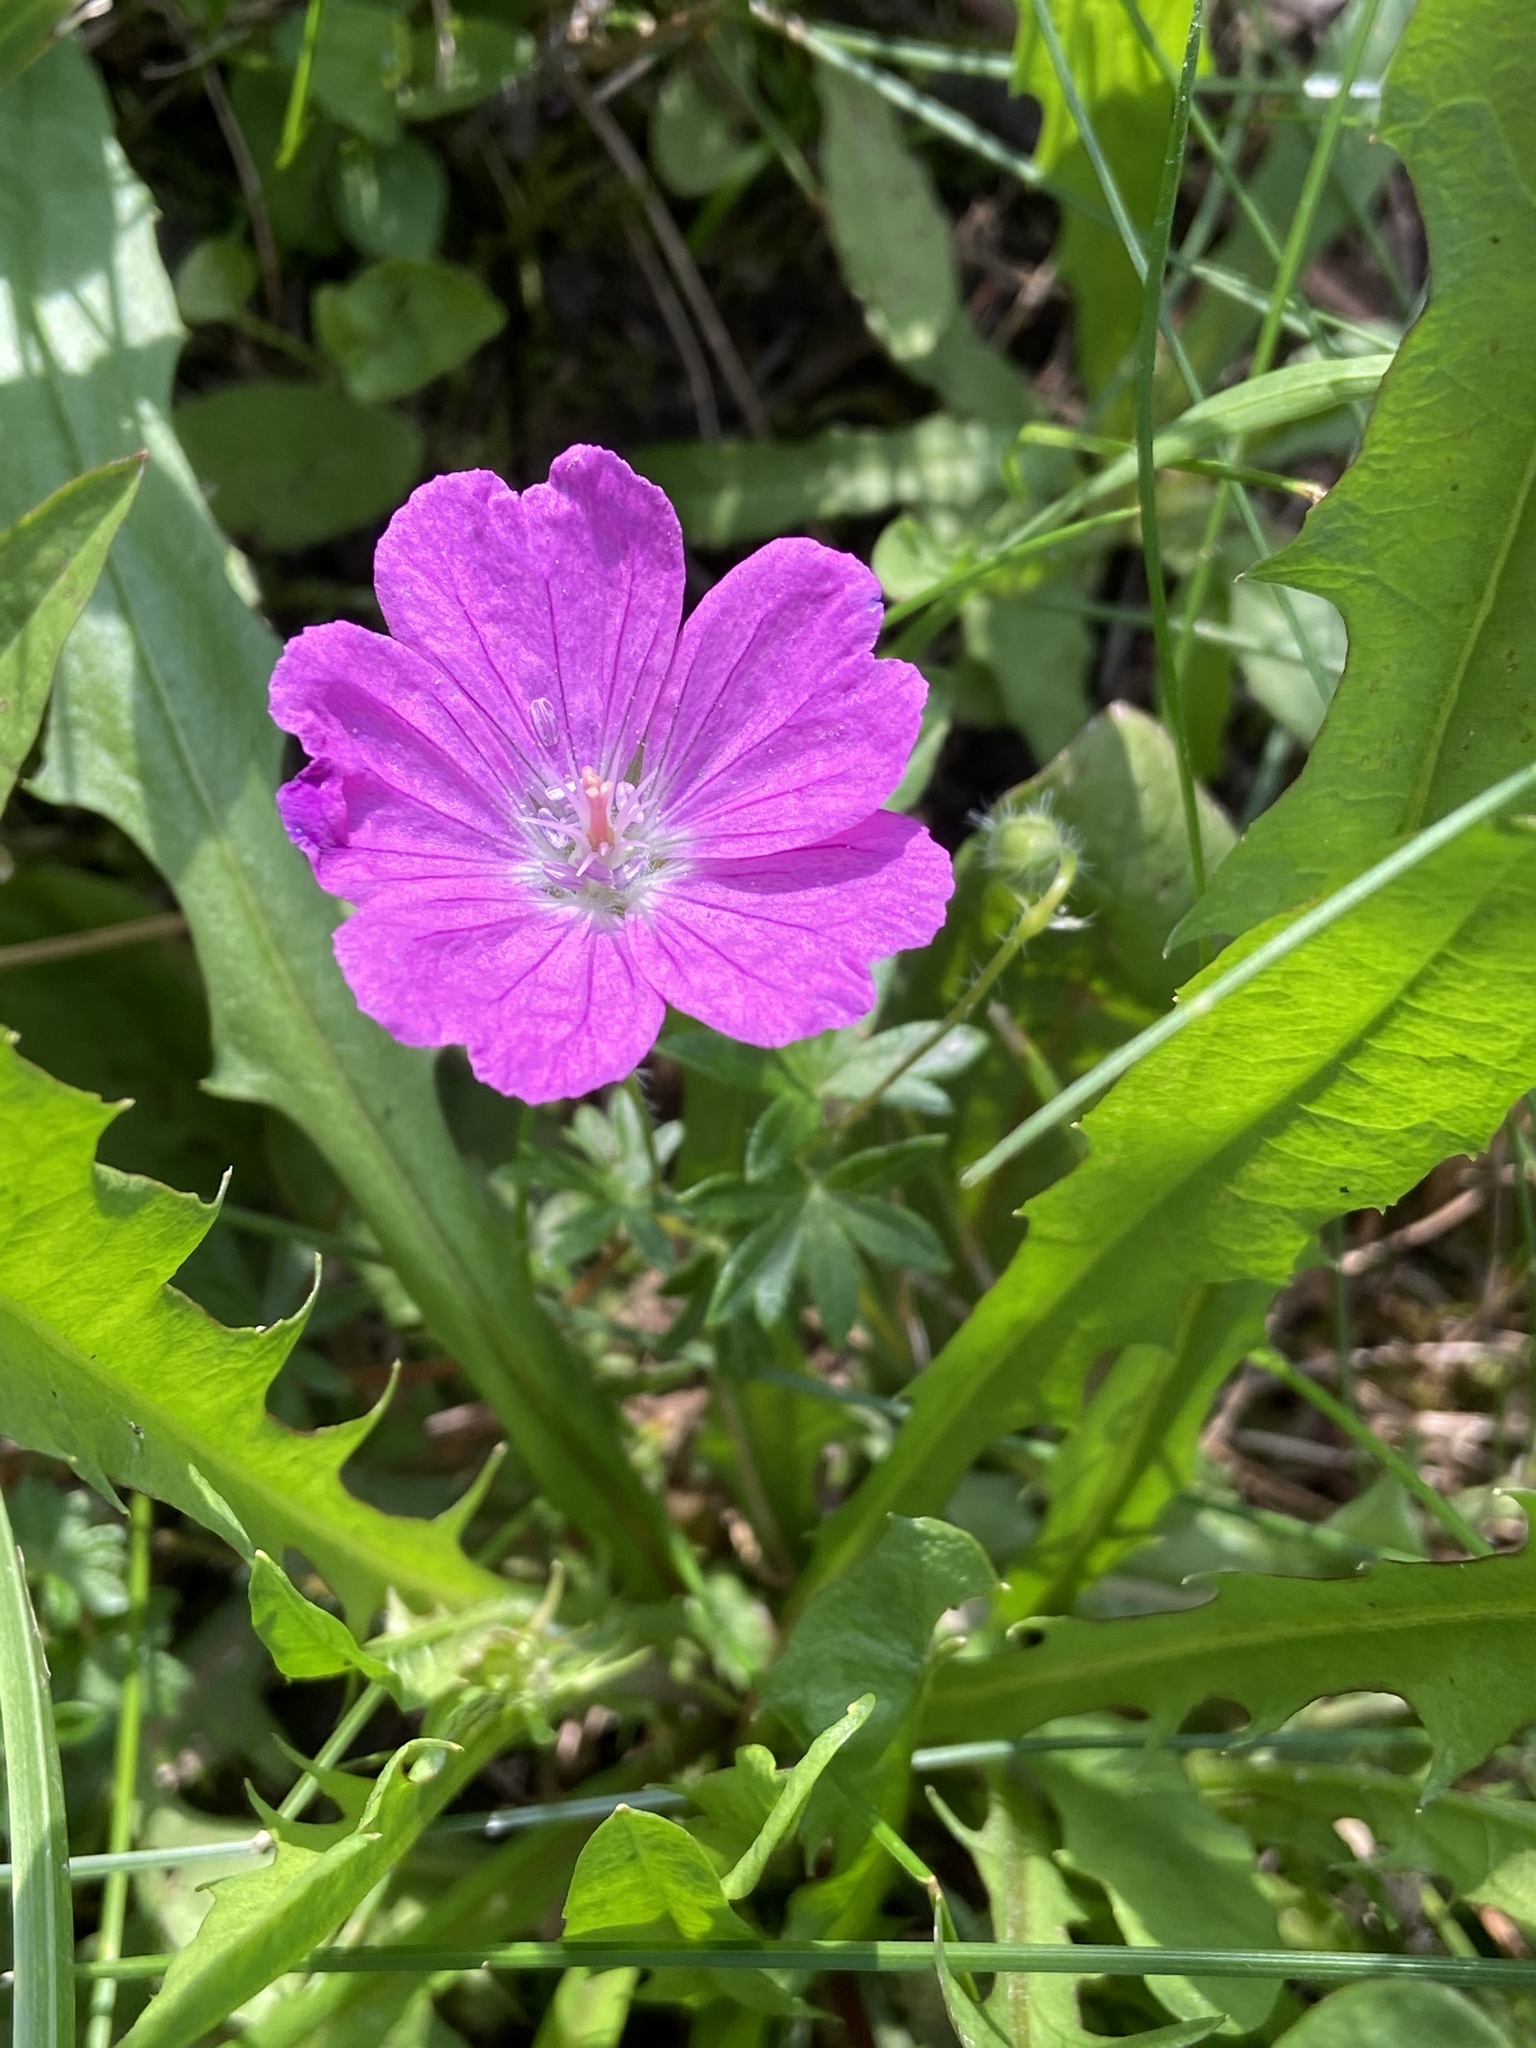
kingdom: Plantae
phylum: Tracheophyta
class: Magnoliopsida
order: Geraniales
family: Geraniaceae
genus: Geranium
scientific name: Geranium sanguineum
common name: Bloody crane's-bill
